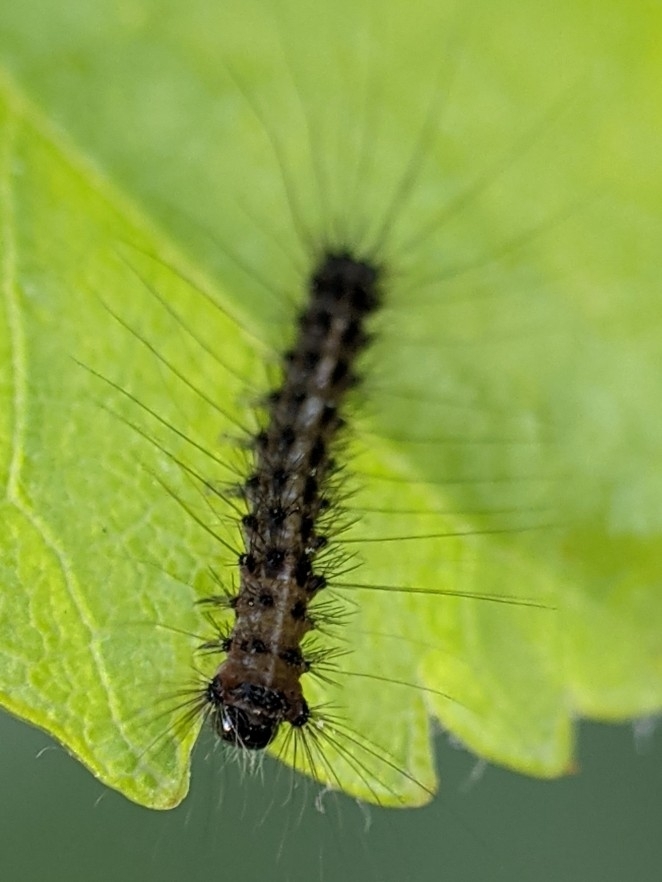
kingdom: Animalia
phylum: Arthropoda
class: Insecta
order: Lepidoptera
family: Erebidae
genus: Lymantria
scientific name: Lymantria dispar
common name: Gypsy moth
